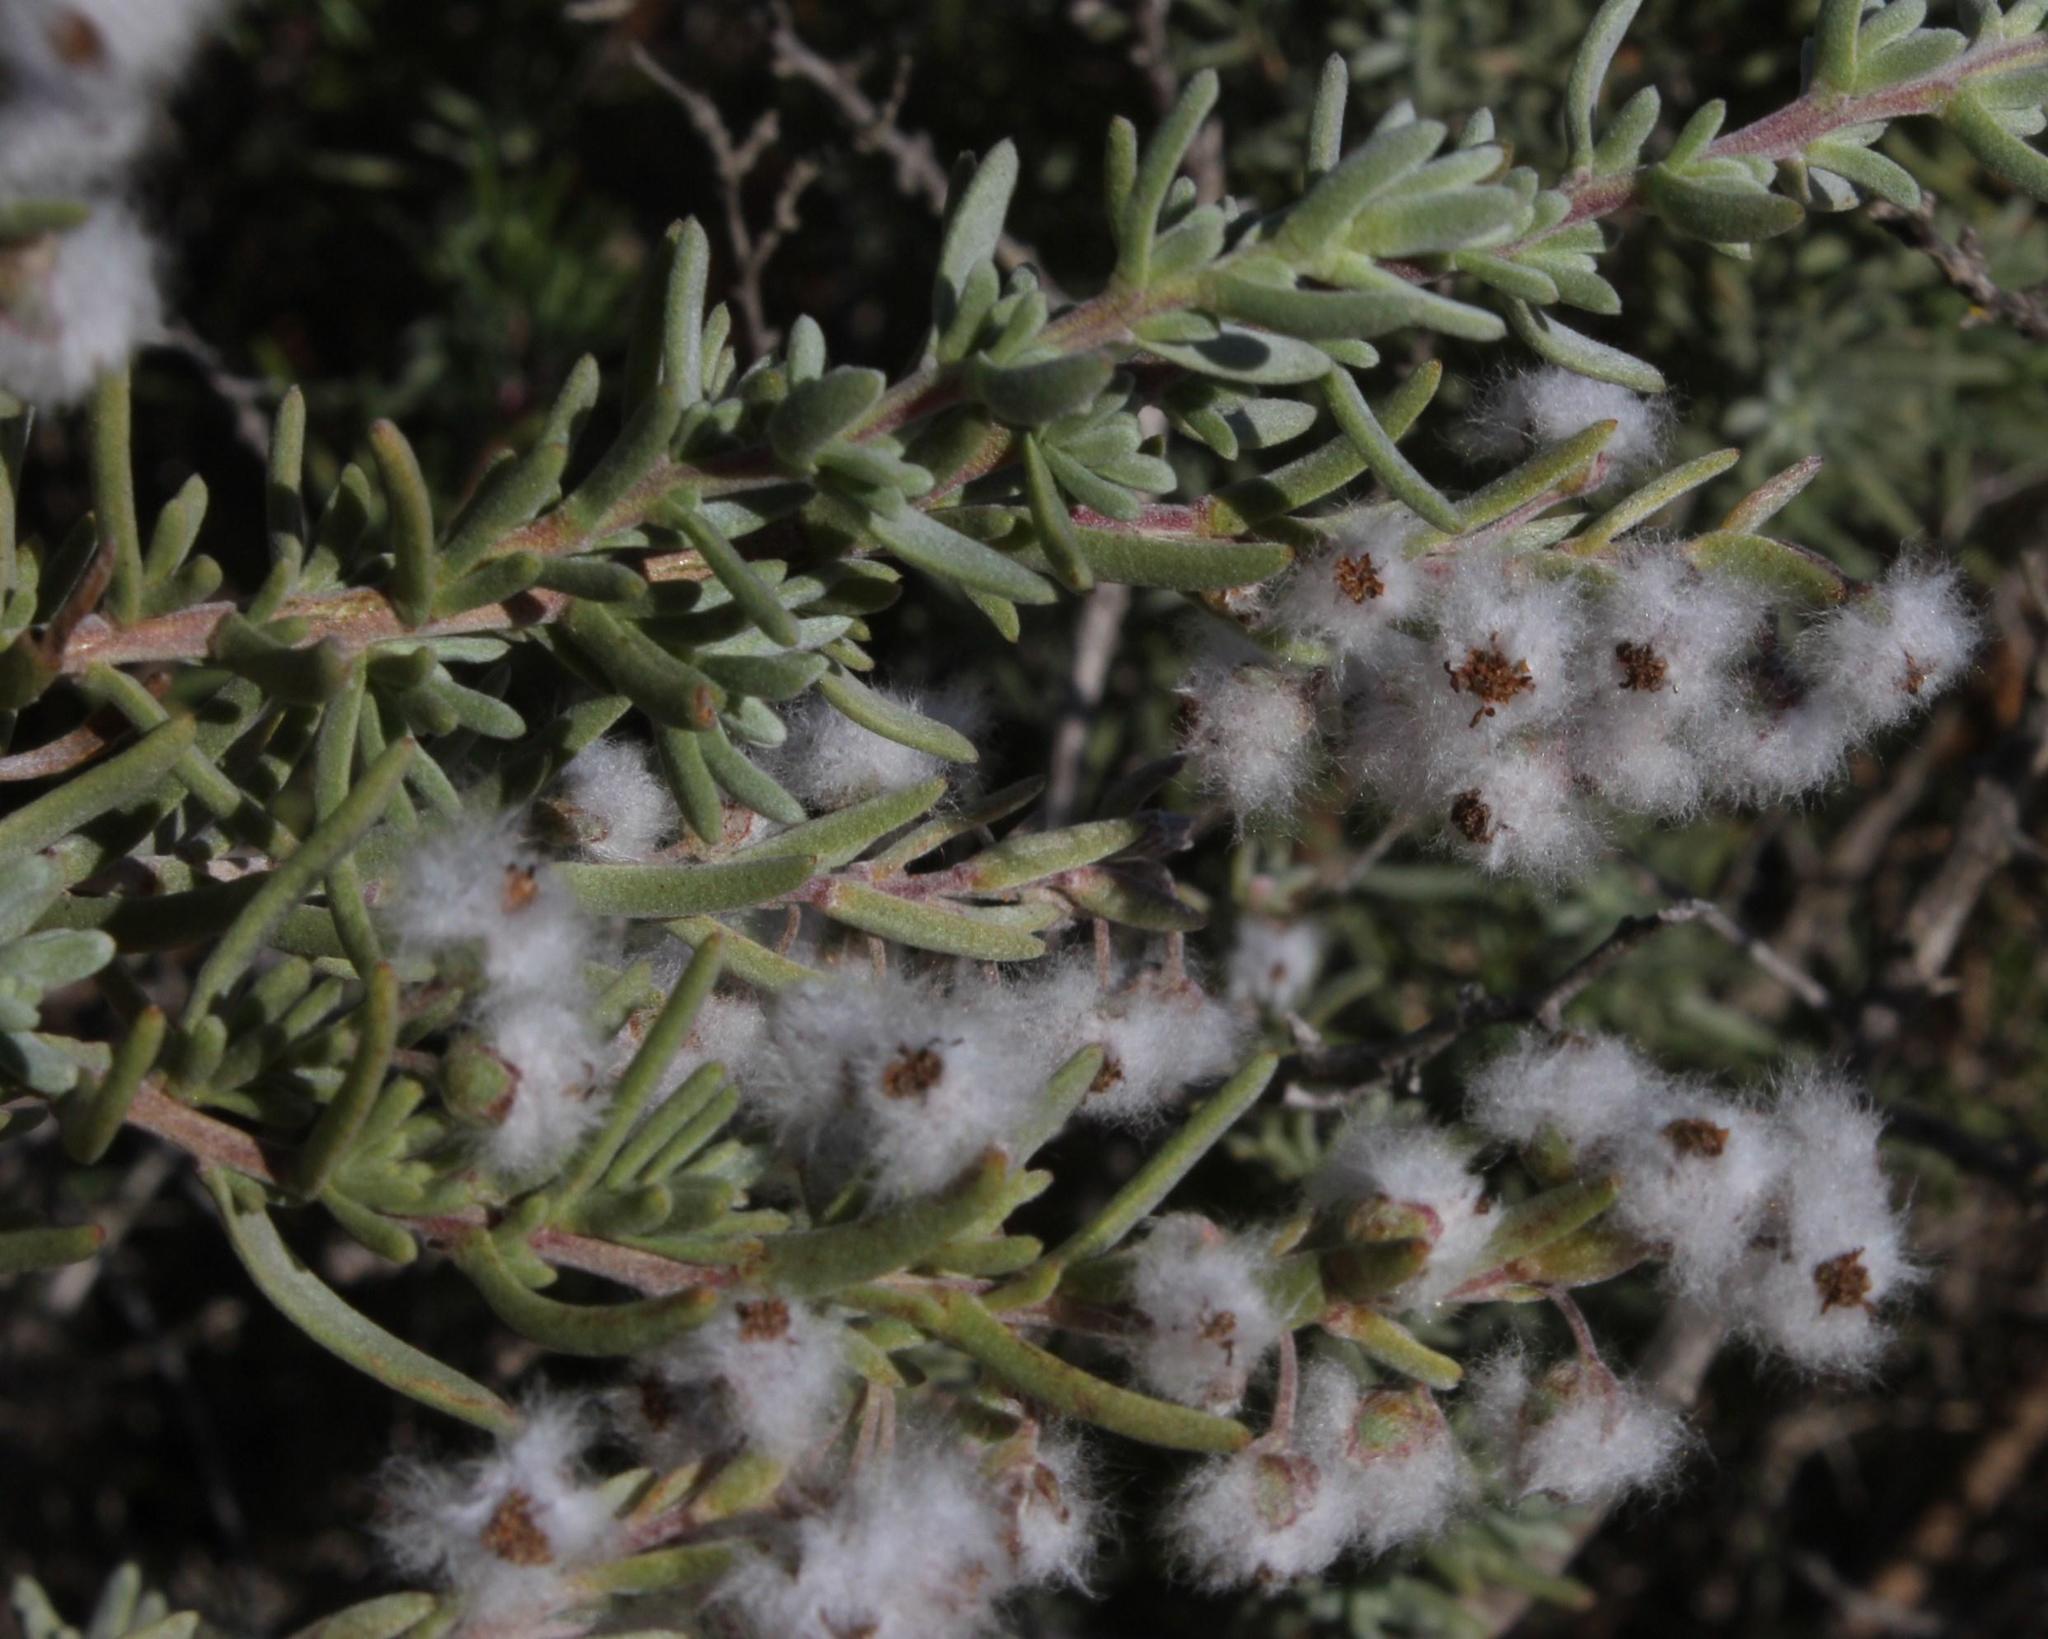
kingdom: Plantae
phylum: Tracheophyta
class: Magnoliopsida
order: Asterales
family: Asteraceae
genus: Eriocephalus
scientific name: Eriocephalus racemosus
